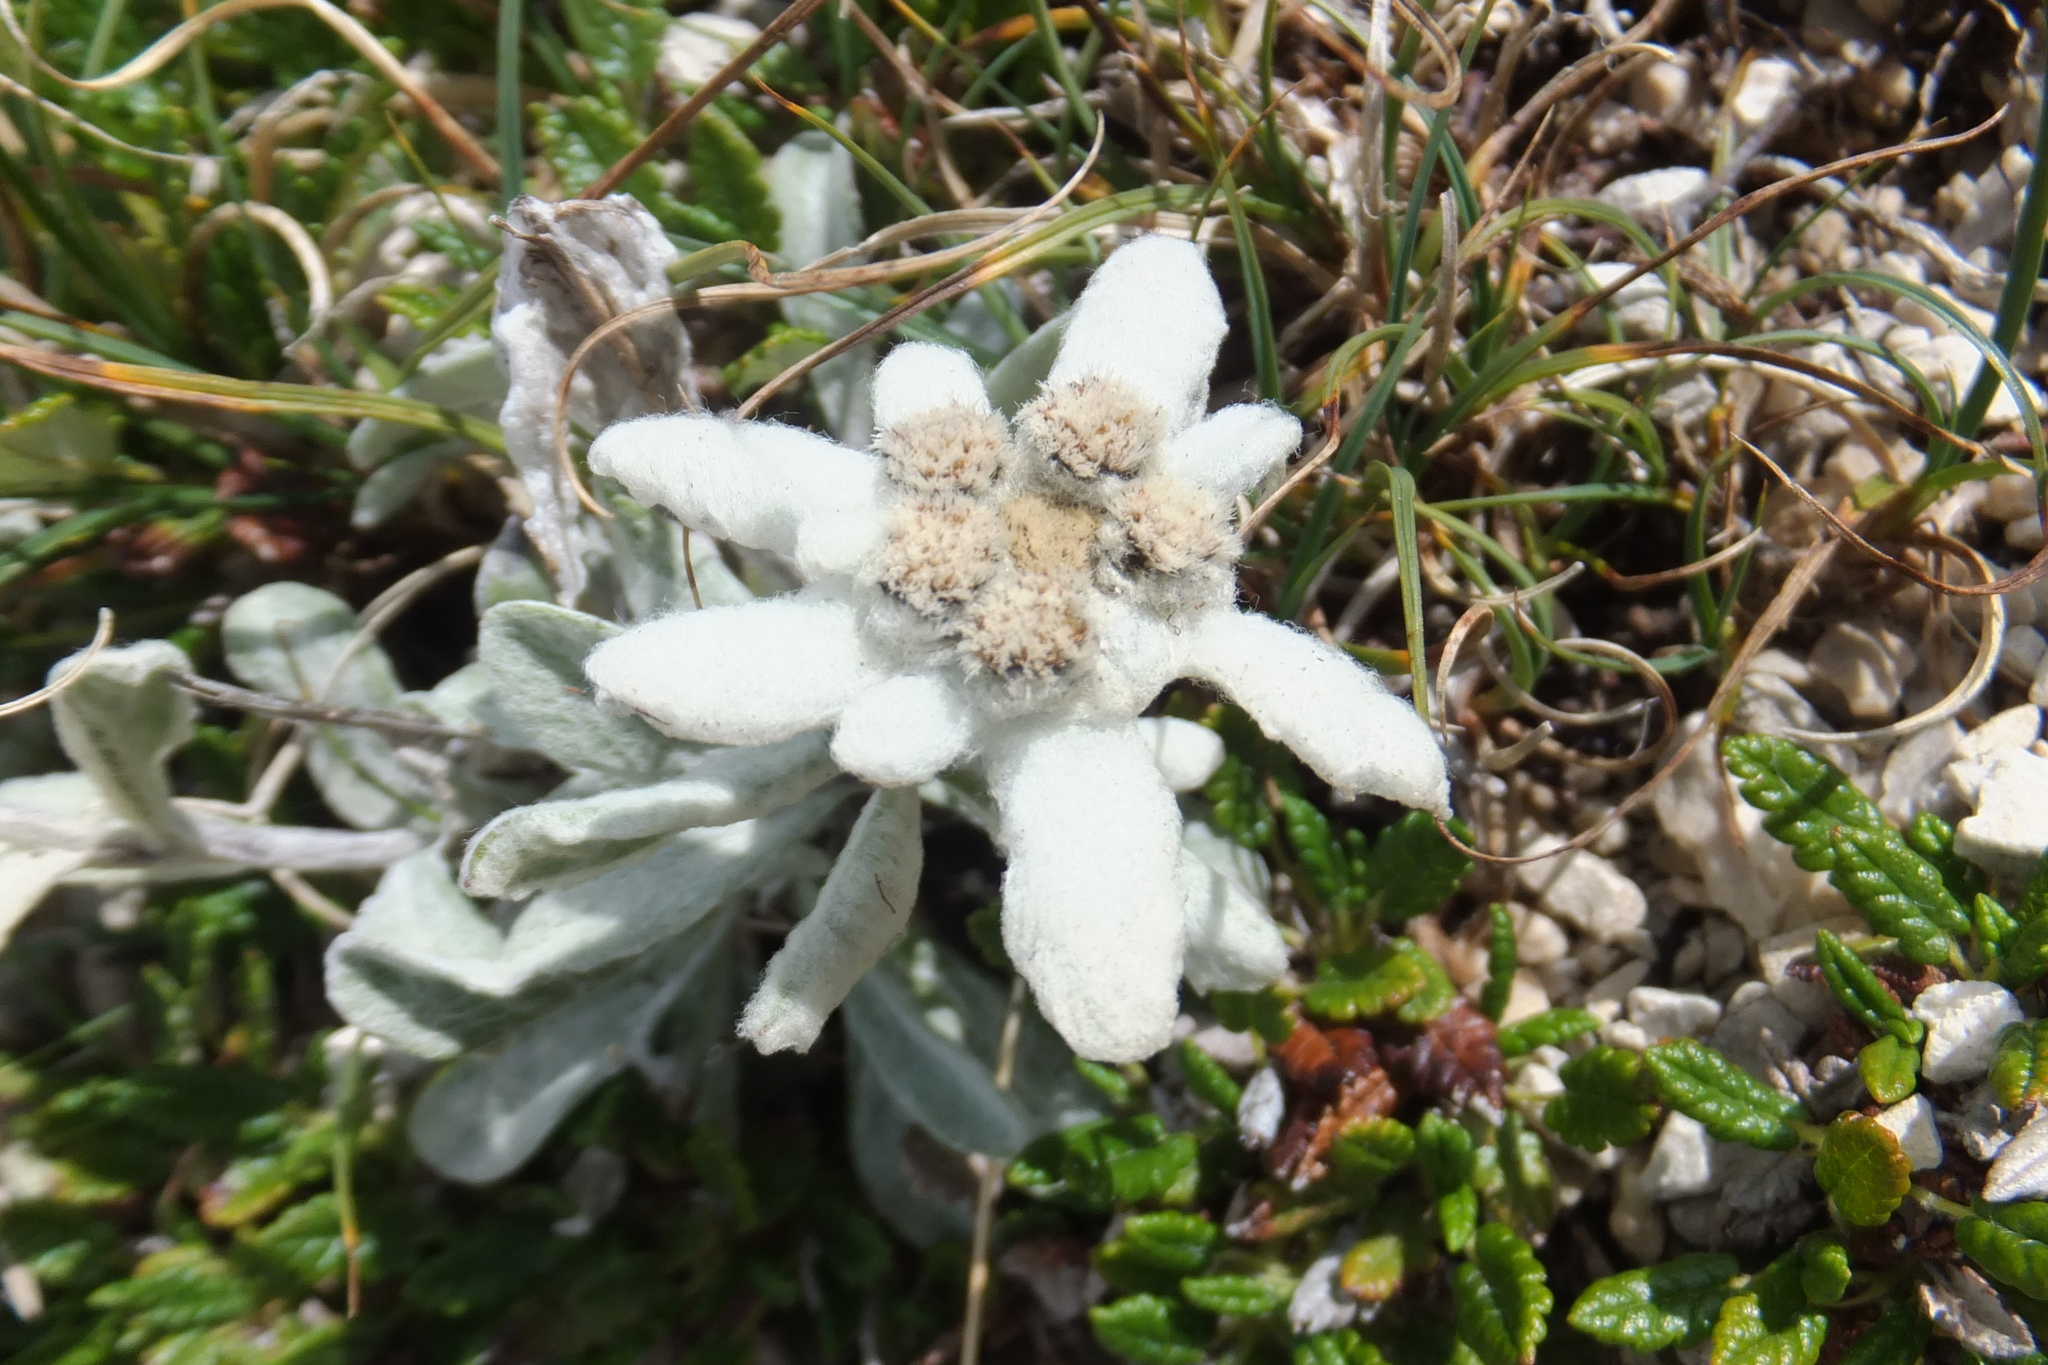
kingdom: Plantae
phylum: Tracheophyta
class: Magnoliopsida
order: Asterales
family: Asteraceae
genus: Leontopodium
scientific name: Leontopodium nivale
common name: Edelweiss
